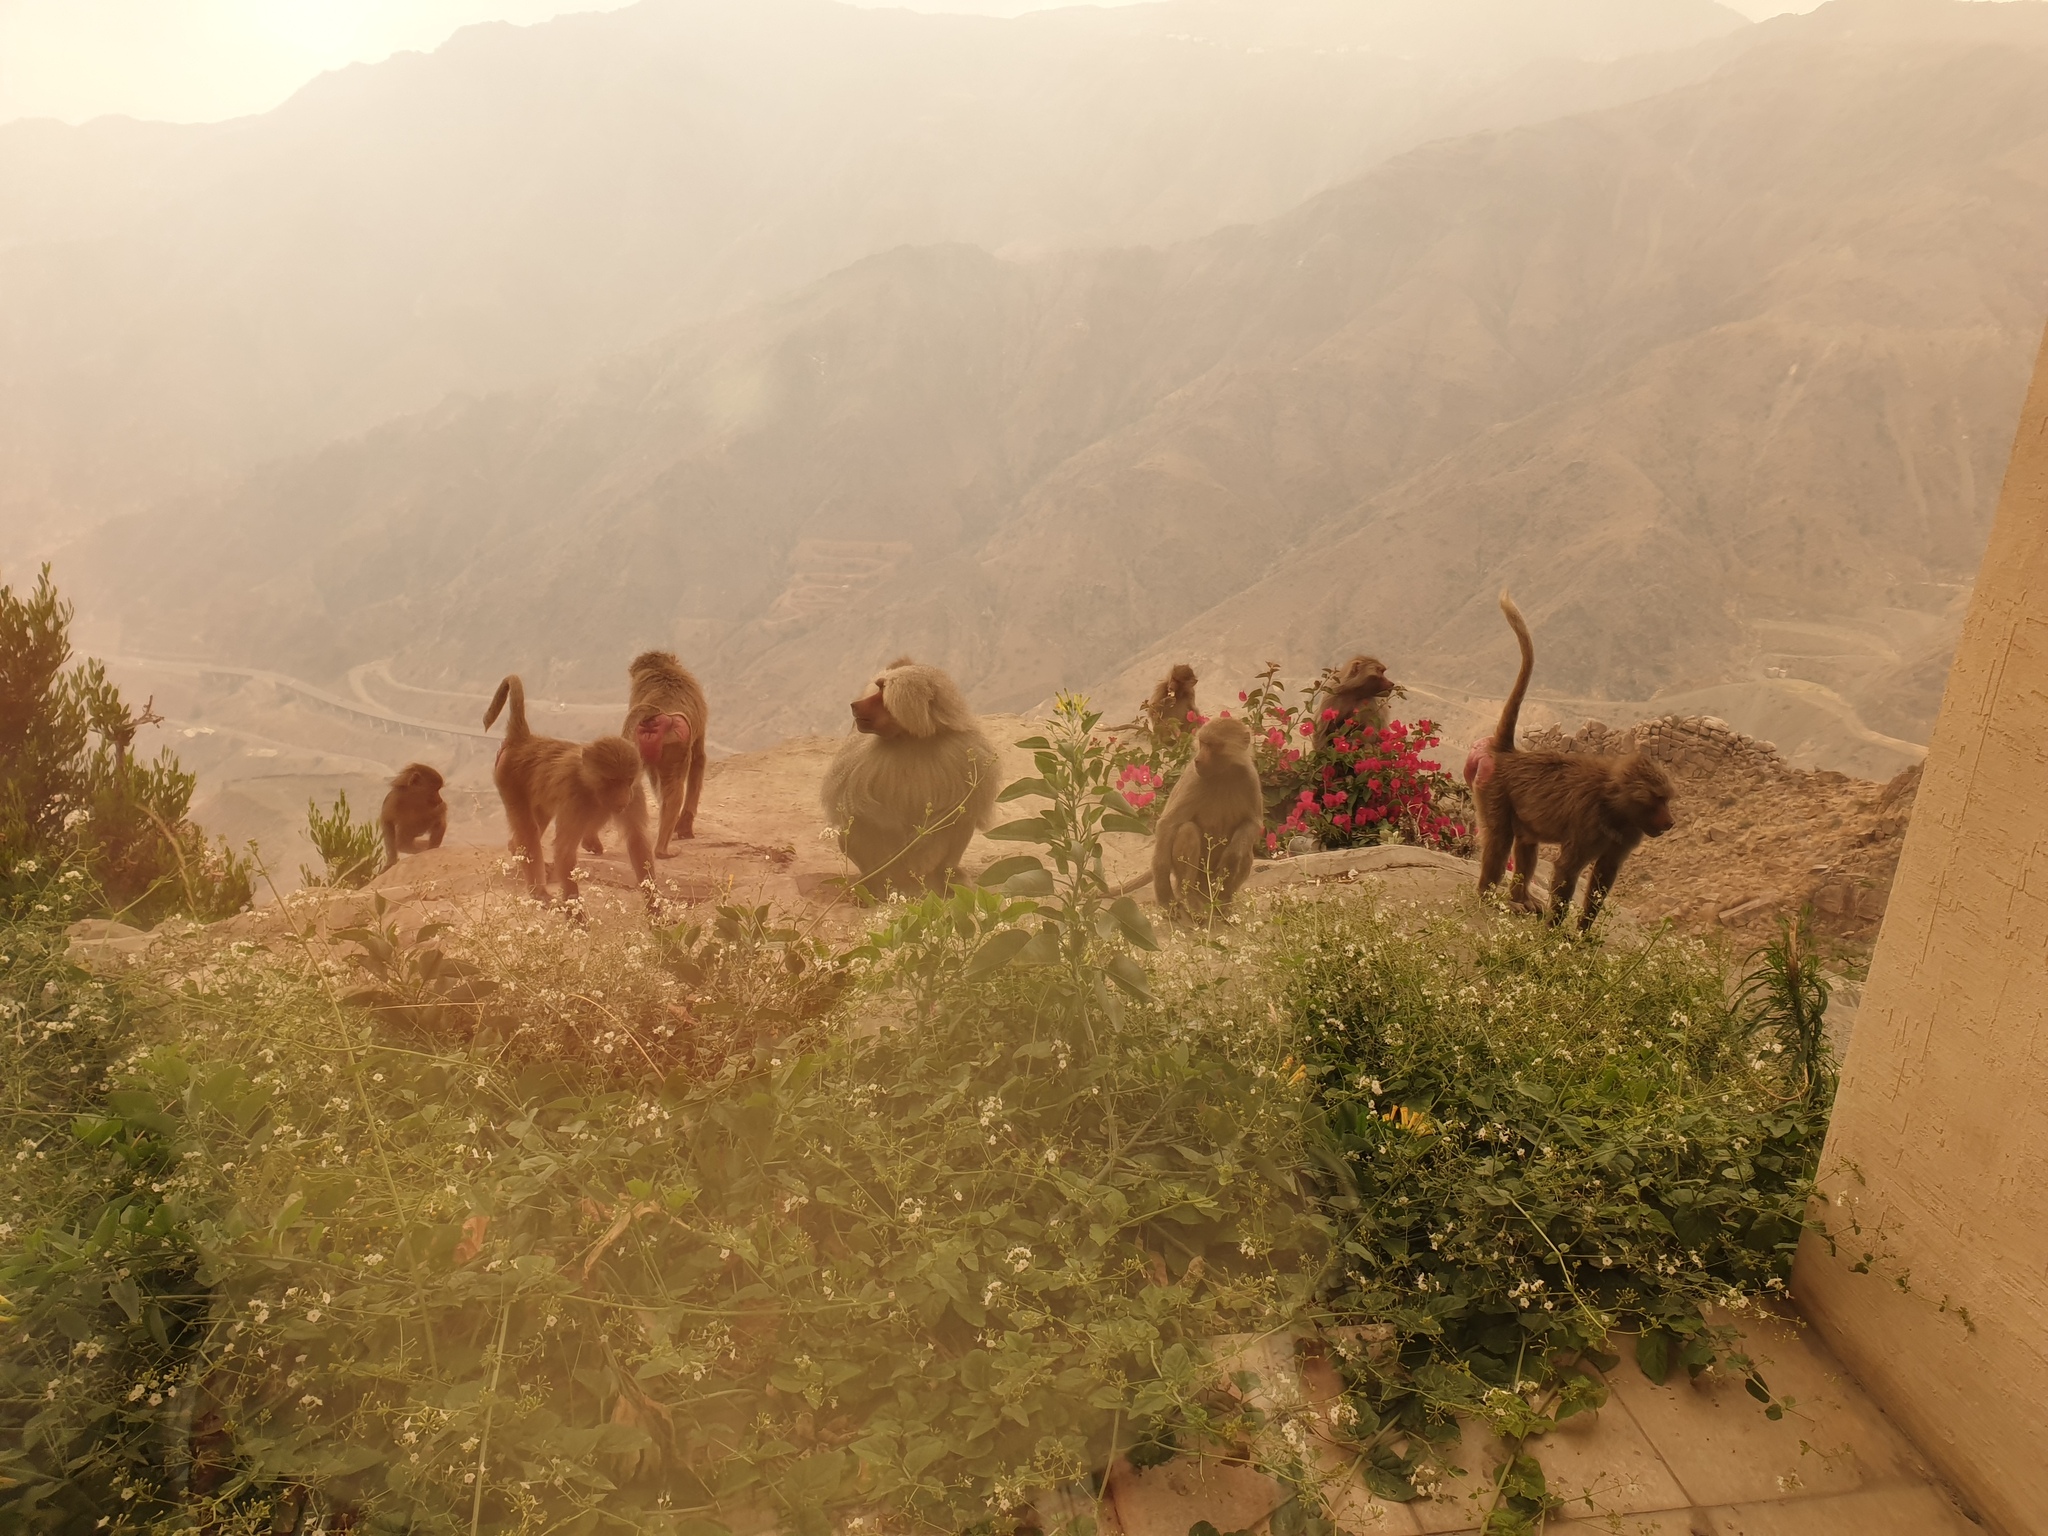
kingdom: Animalia
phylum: Chordata
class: Mammalia
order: Primates
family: Cercopithecidae
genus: Papio
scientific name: Papio hamadryas
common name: Hamadryas baboon
